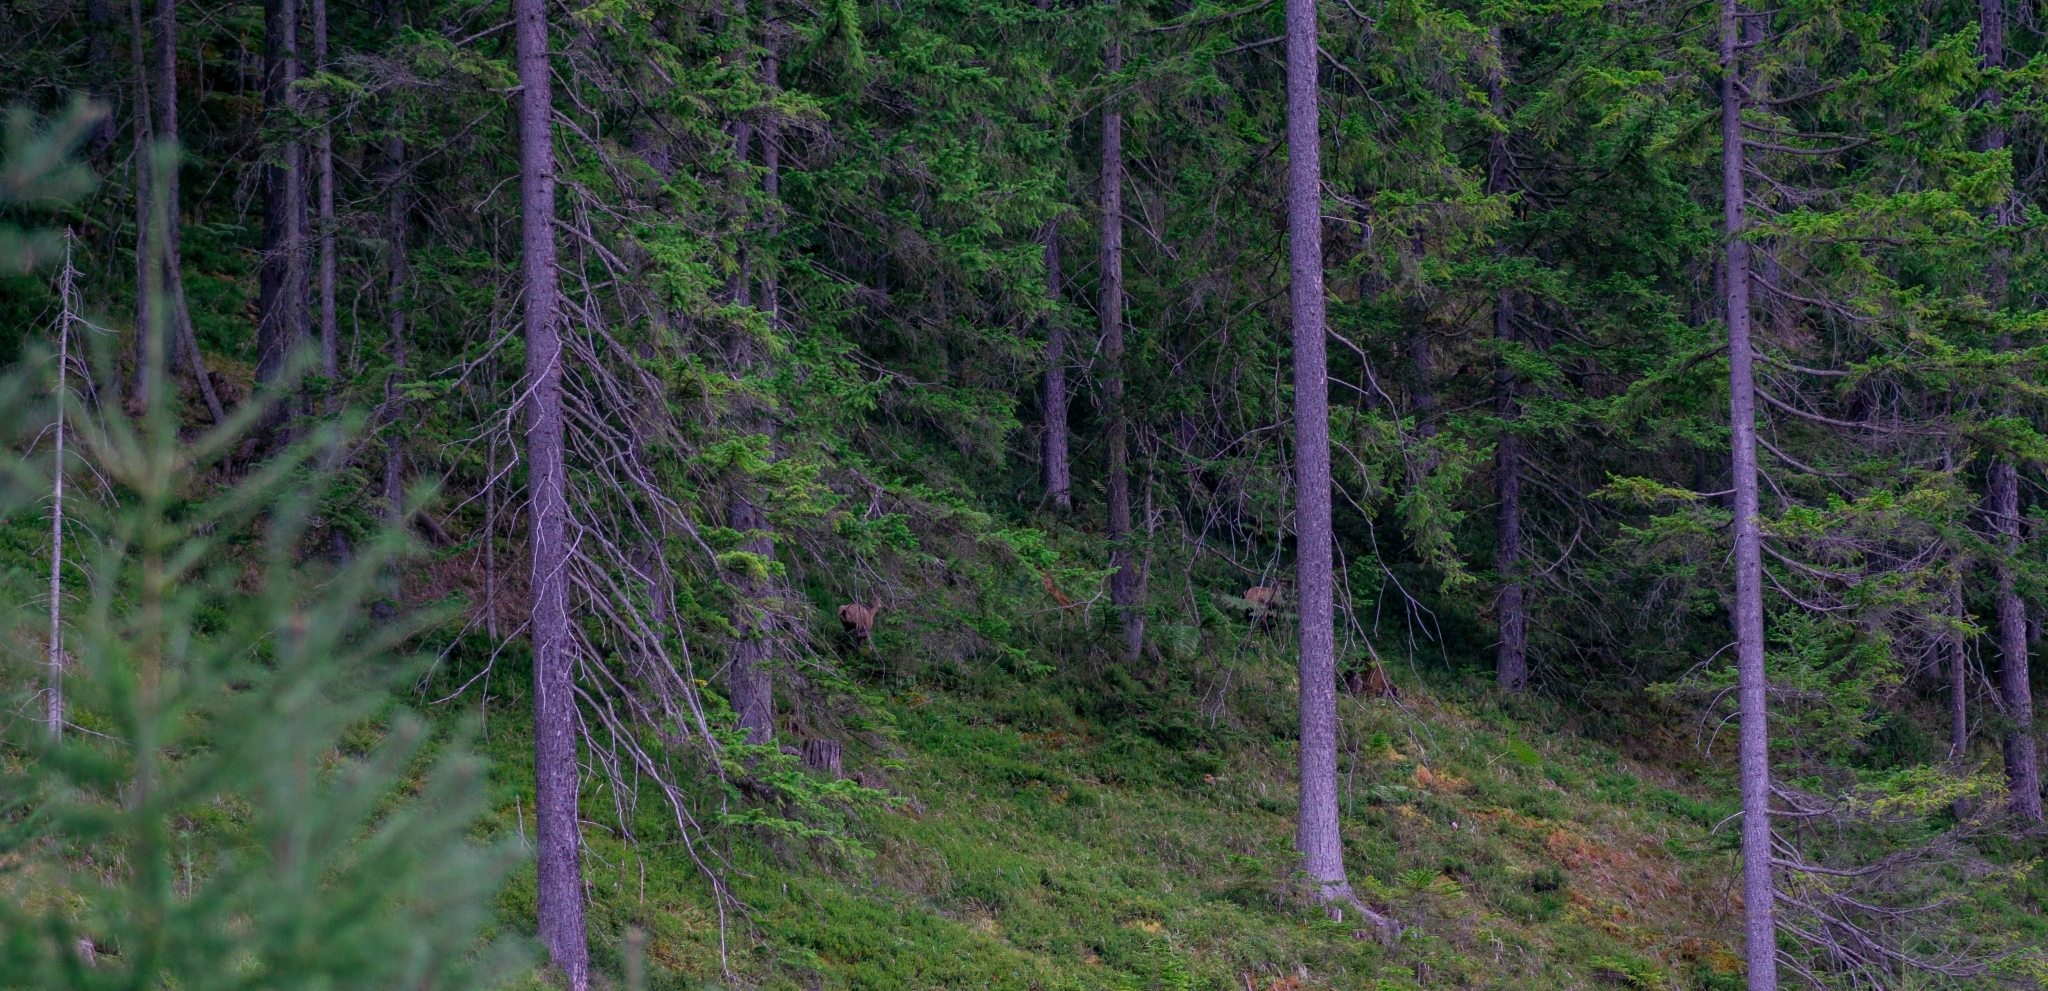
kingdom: Animalia
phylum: Chordata
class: Mammalia
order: Artiodactyla
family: Bovidae
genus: Rupicapra
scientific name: Rupicapra rupicapra
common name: Chamois
